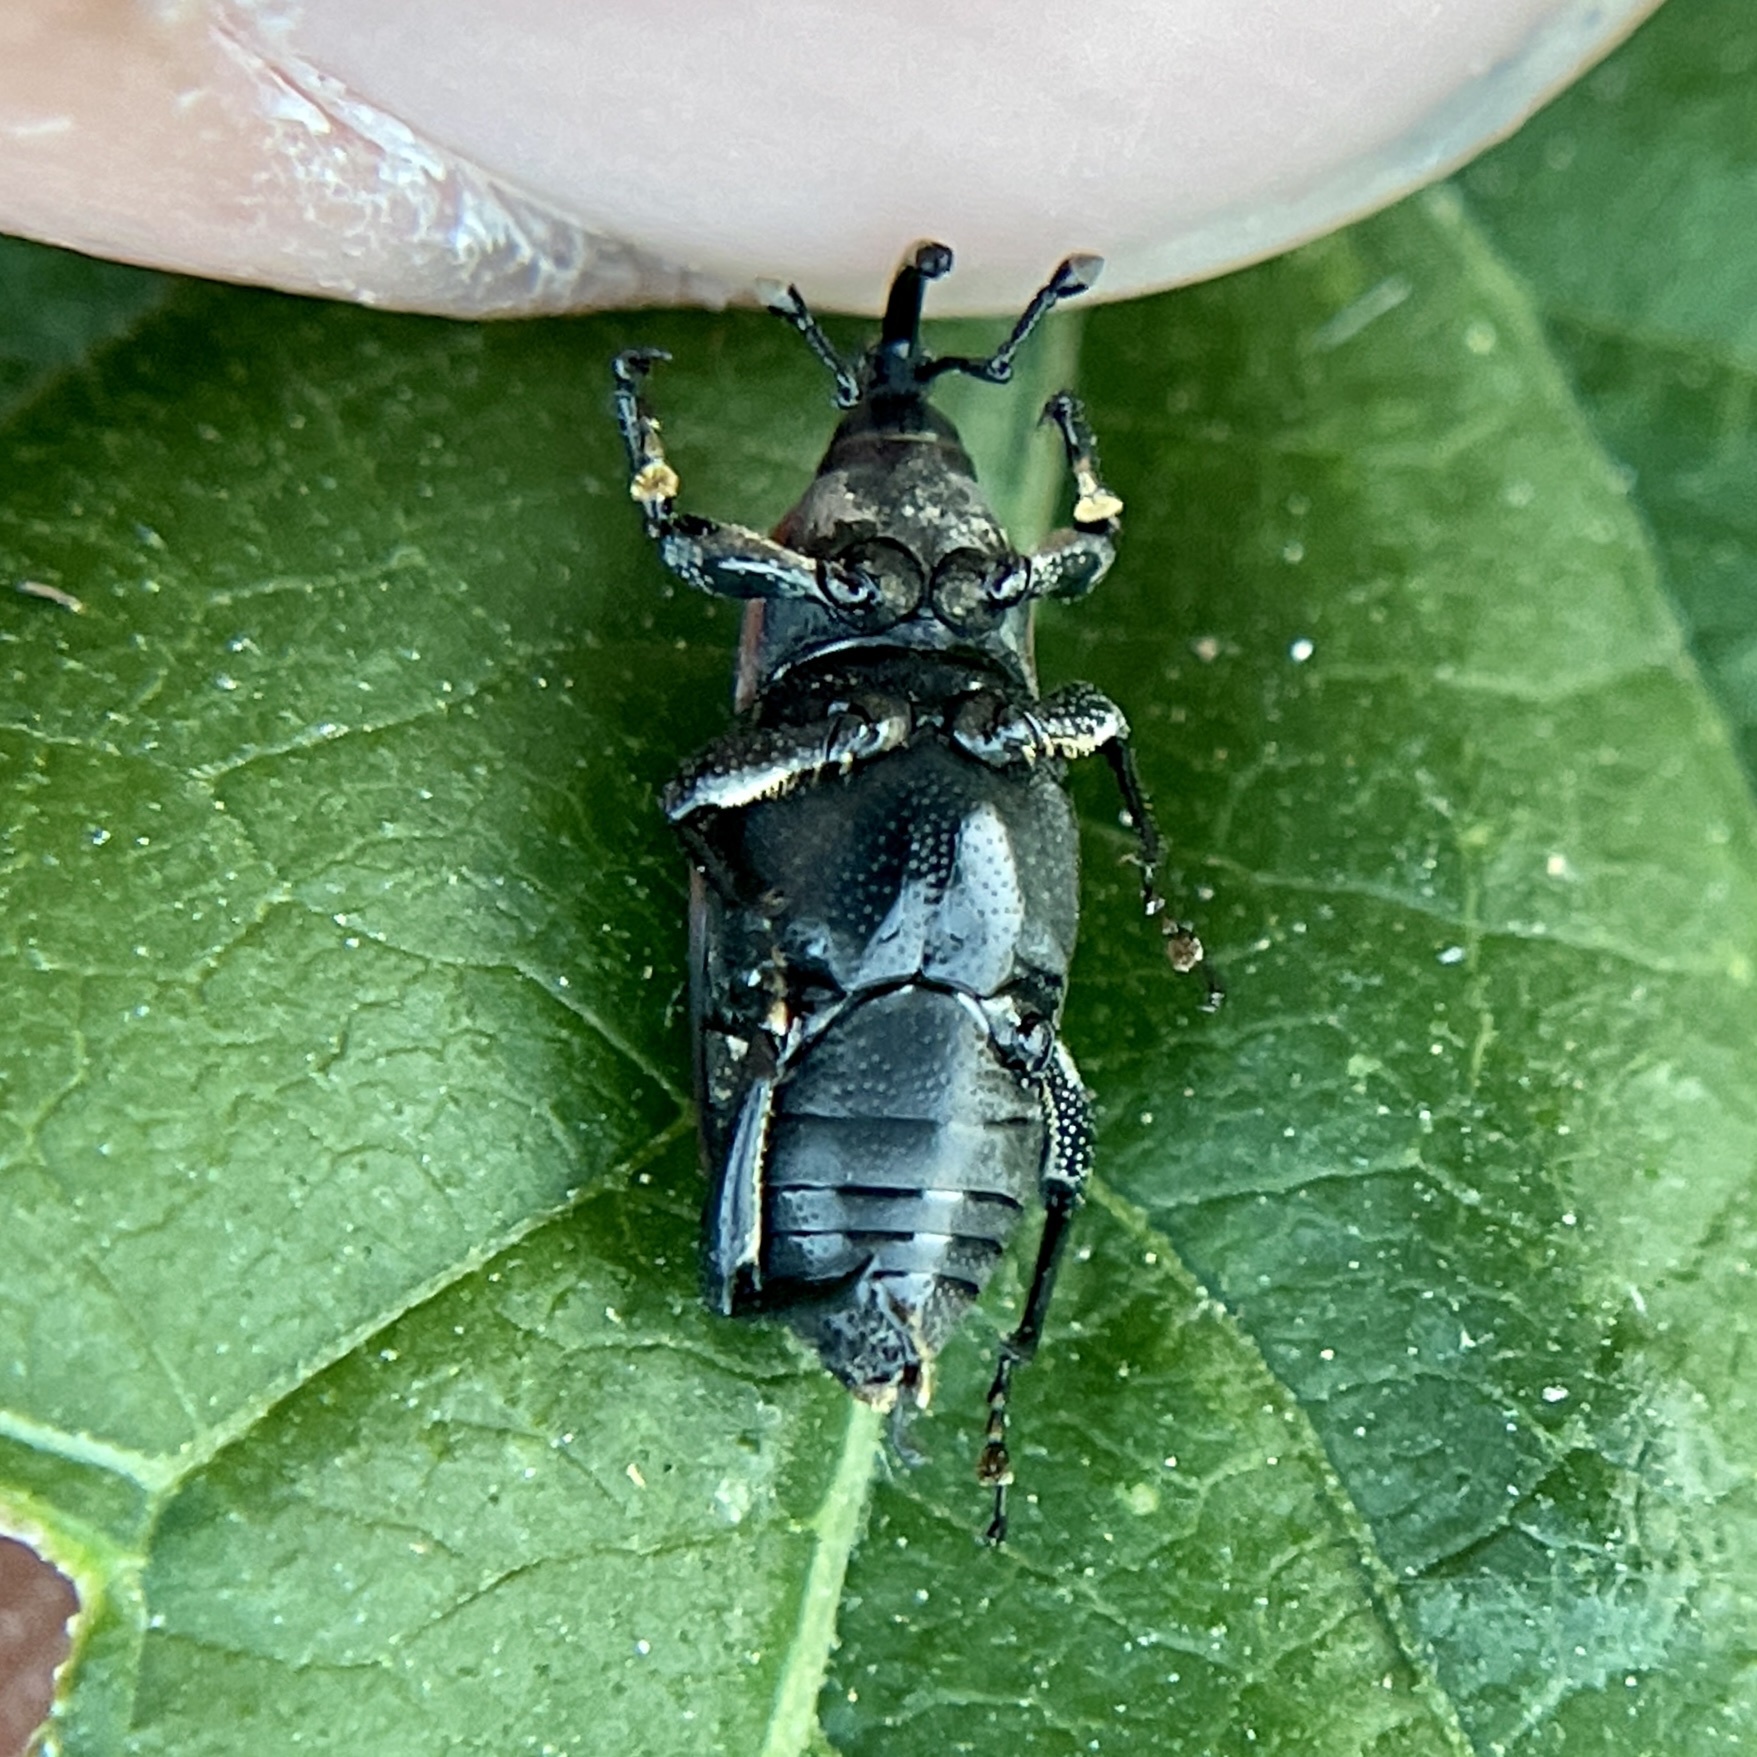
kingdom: Animalia
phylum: Arthropoda
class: Insecta
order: Coleoptera
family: Dryophthoridae
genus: Rhodobaenus
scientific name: Rhodobaenus quinquepunctatus
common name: Cocklebur weevil
